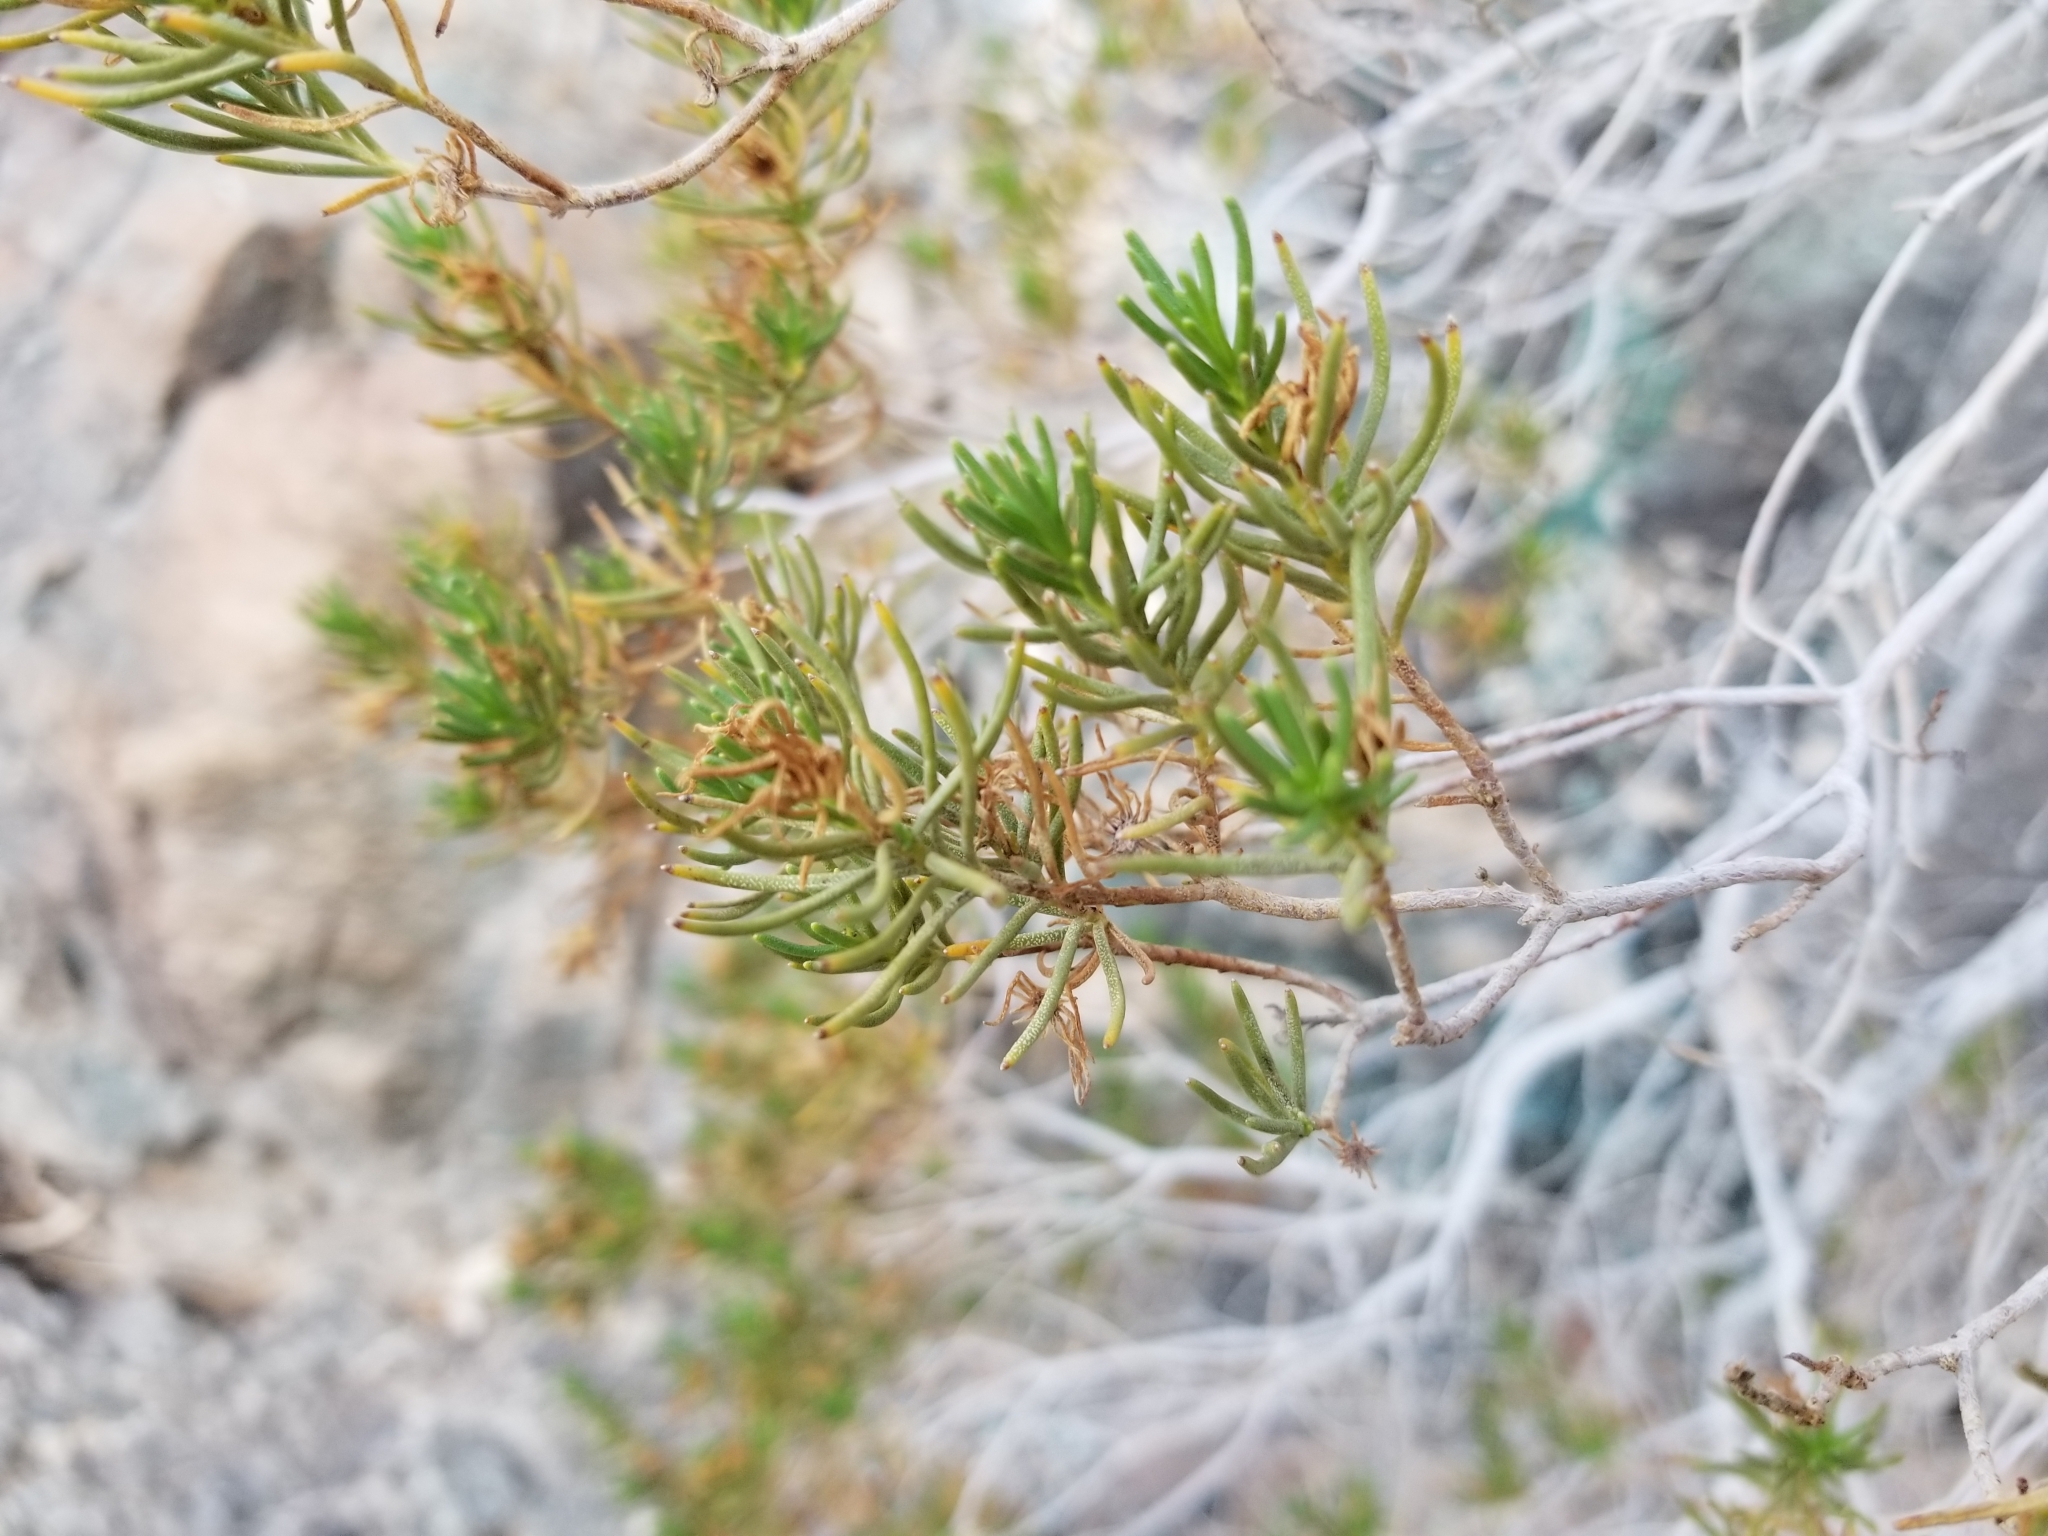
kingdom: Plantae
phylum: Tracheophyta
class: Magnoliopsida
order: Asterales
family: Asteraceae
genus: Peucephyllum
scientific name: Peucephyllum schottii
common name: Pygmy-cedar
